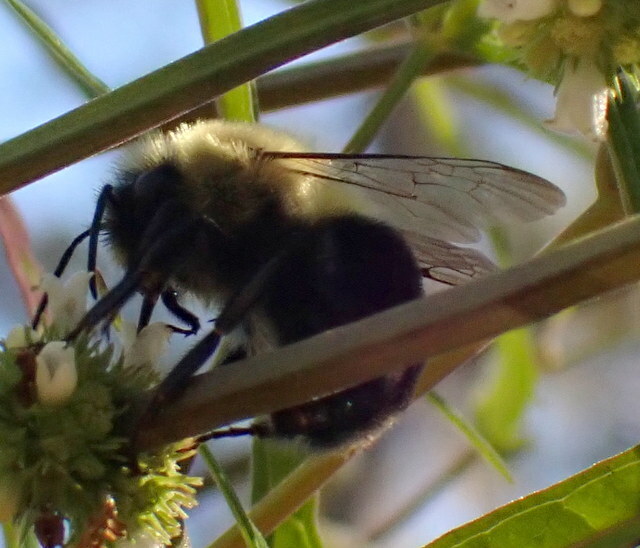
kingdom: Animalia
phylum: Arthropoda
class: Insecta
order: Hymenoptera
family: Apidae
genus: Bombus
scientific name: Bombus impatiens
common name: Common eastern bumble bee
